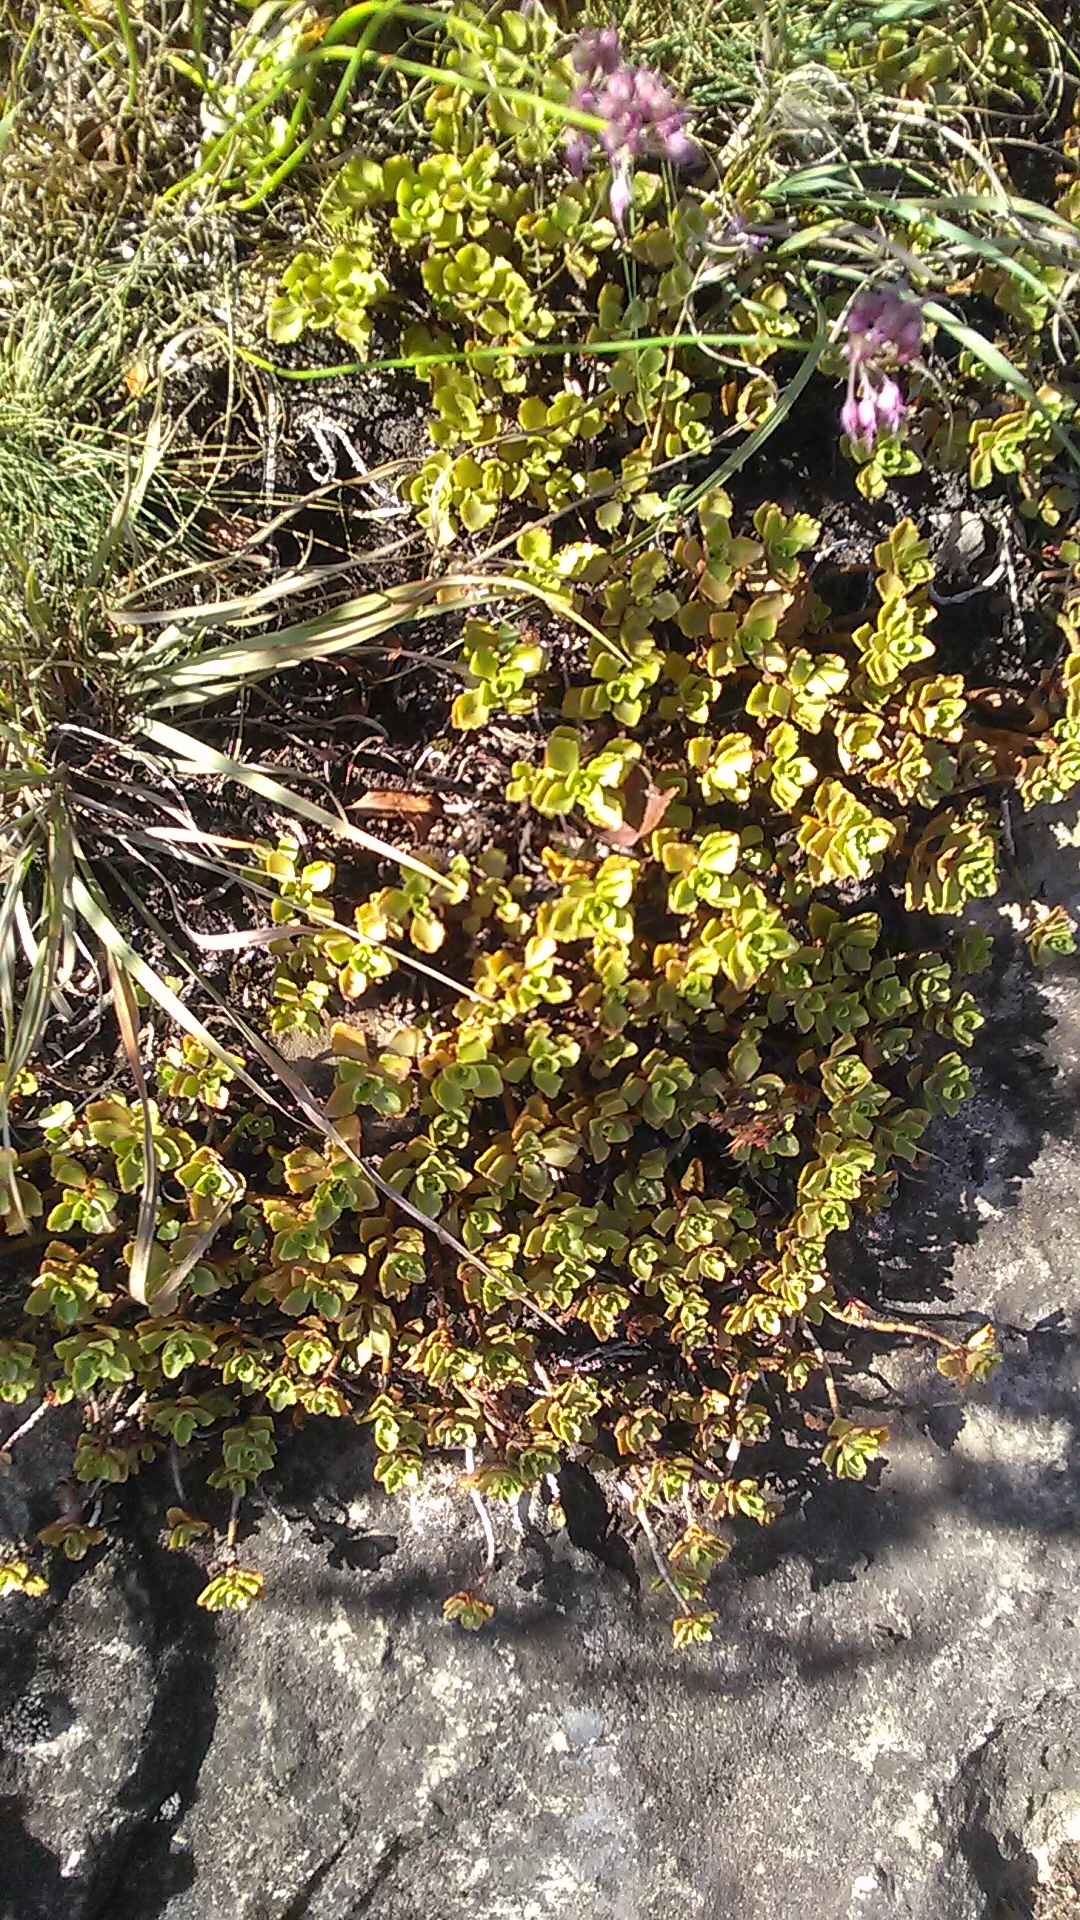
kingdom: Plantae
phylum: Tracheophyta
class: Magnoliopsida
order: Saxifragales
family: Crassulaceae
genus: Phedimus
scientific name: Phedimus spurius
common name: Caucasian stonecrop
